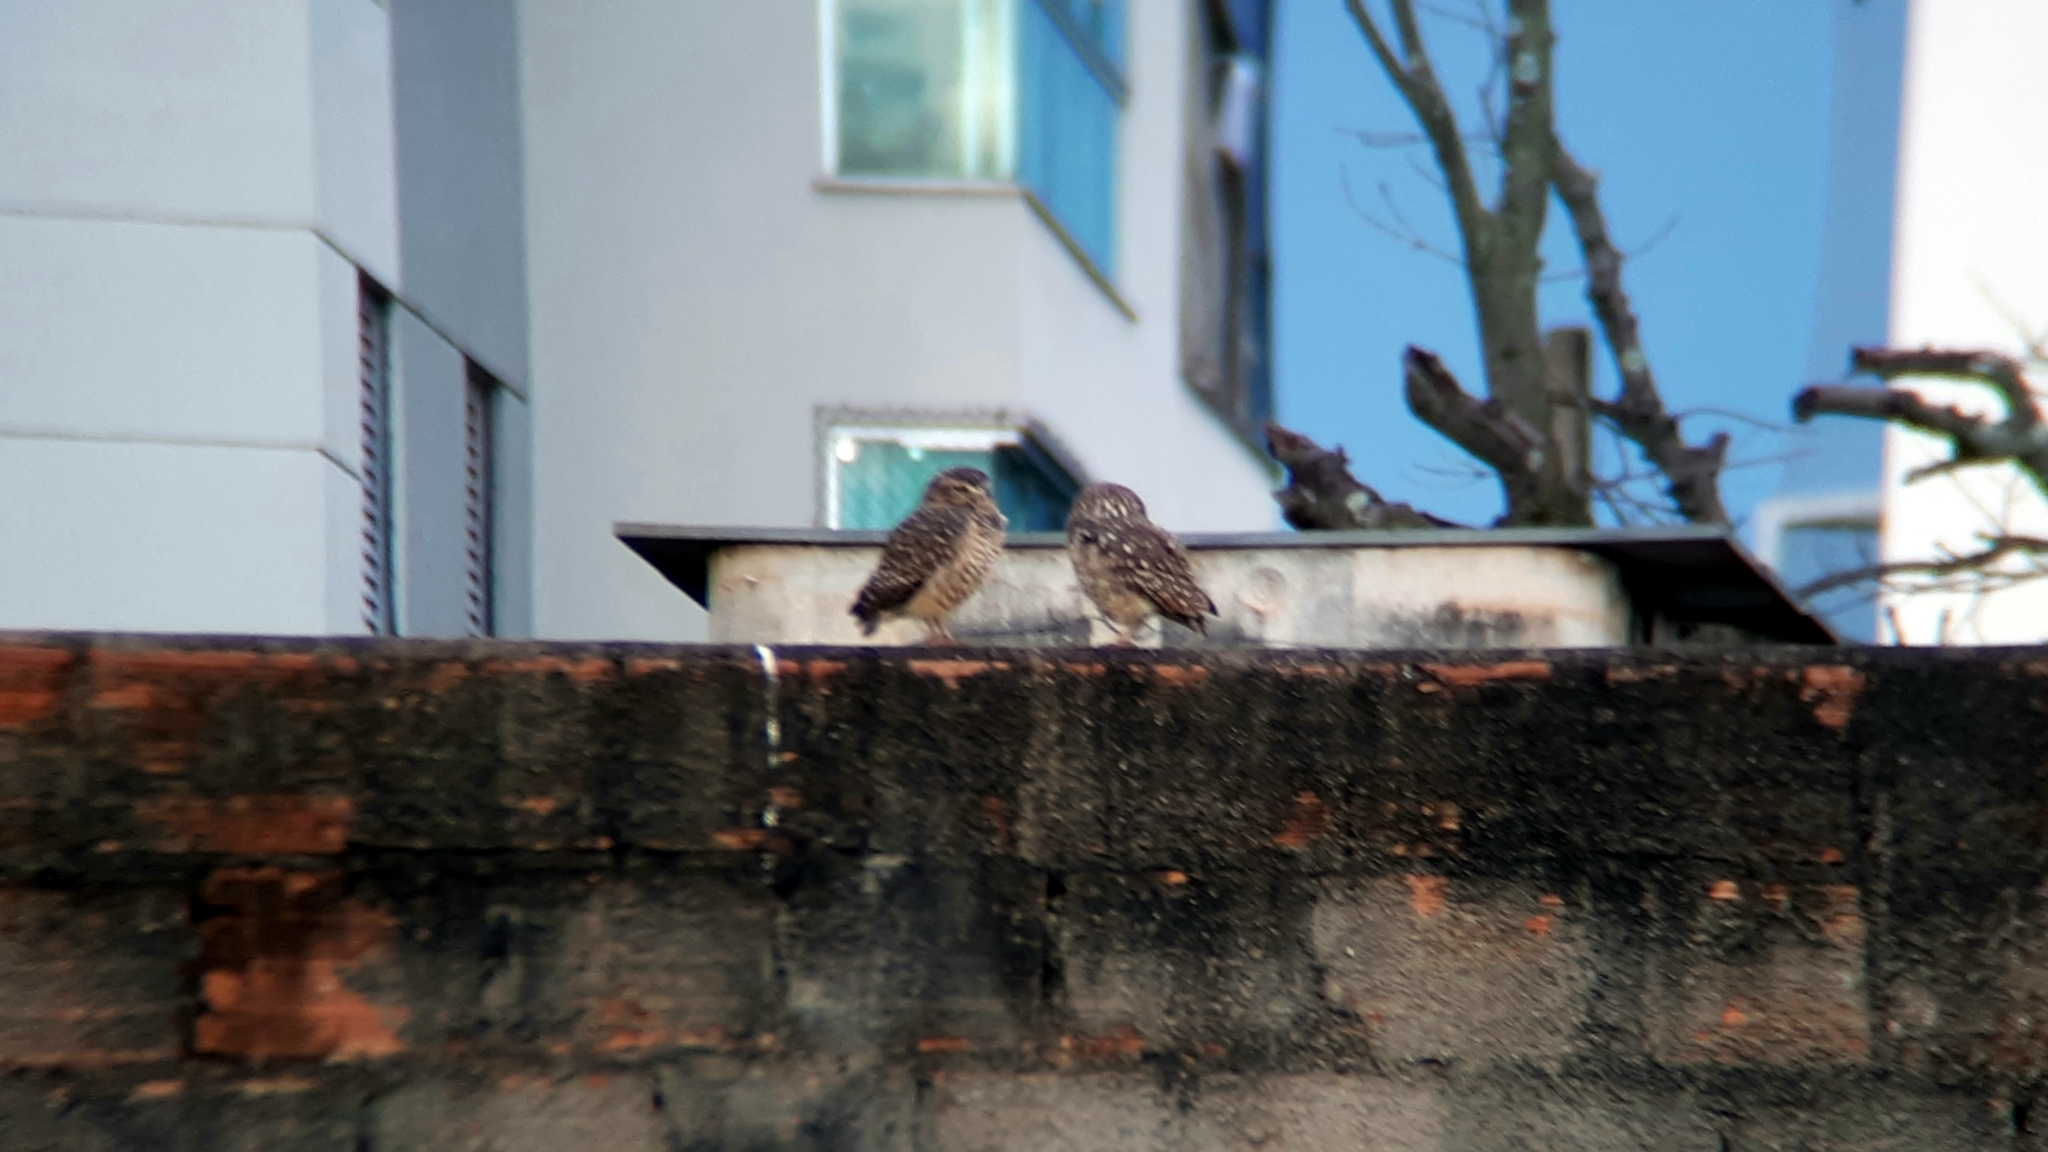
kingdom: Animalia
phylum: Chordata
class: Aves
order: Strigiformes
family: Strigidae
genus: Athene
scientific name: Athene cunicularia
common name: Burrowing owl
